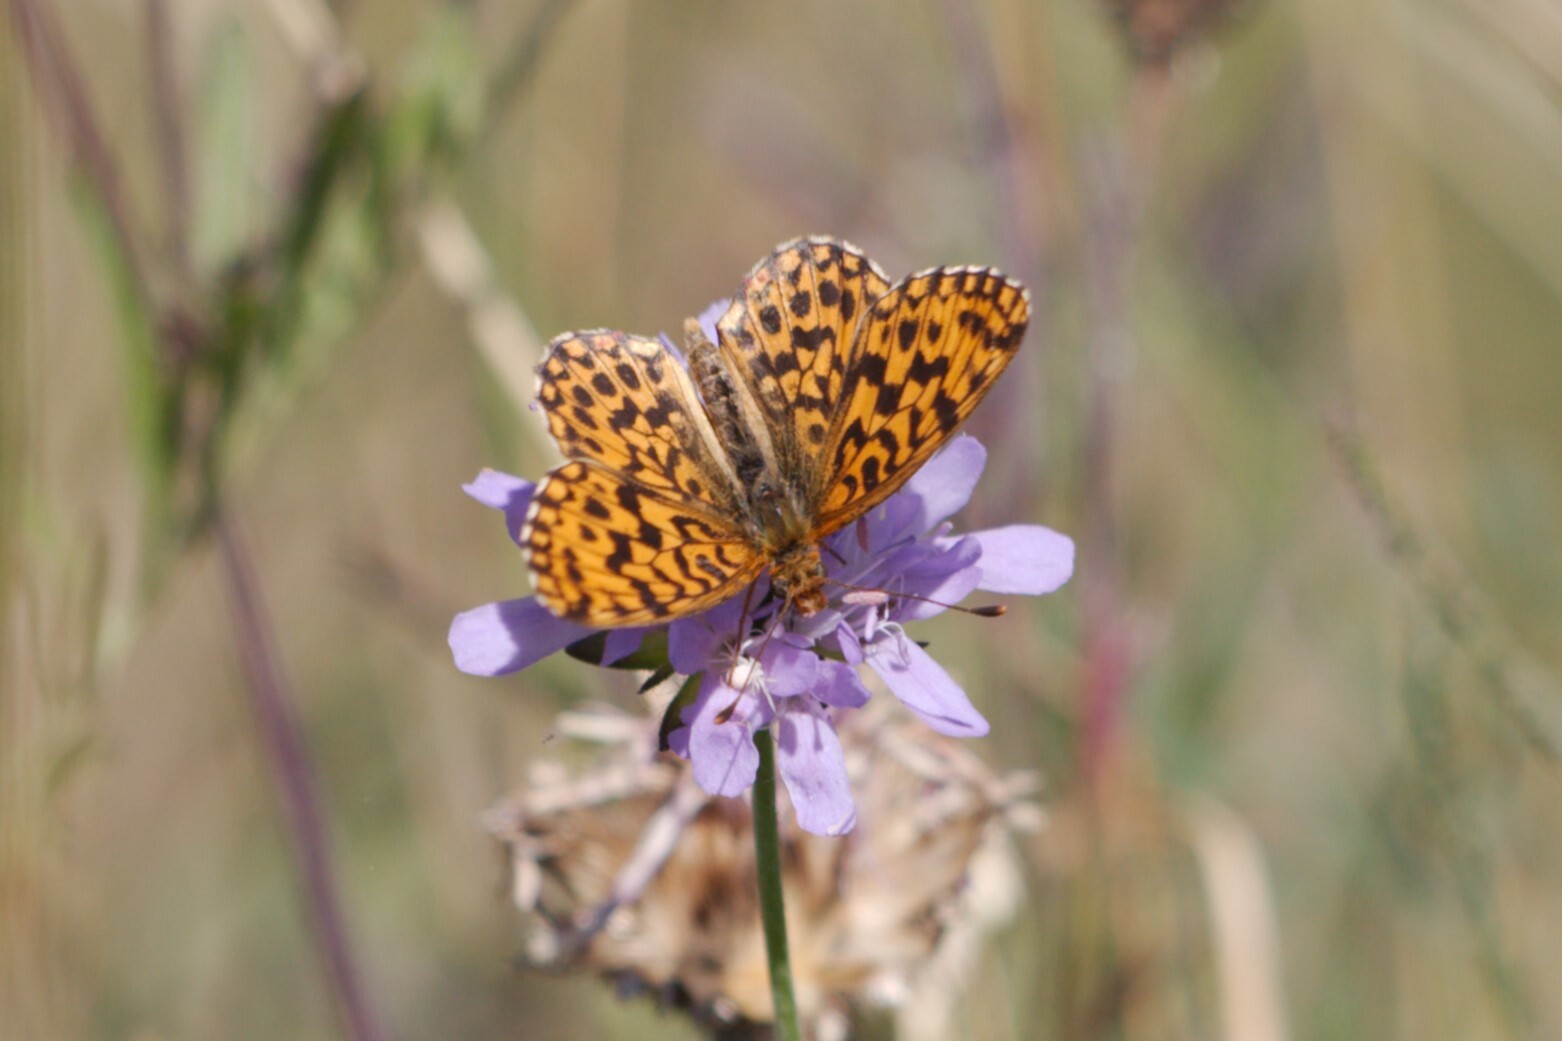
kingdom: Animalia
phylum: Arthropoda
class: Insecta
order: Lepidoptera
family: Nymphalidae
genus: Boloria
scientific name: Boloria dia
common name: Weaver's fritillary
